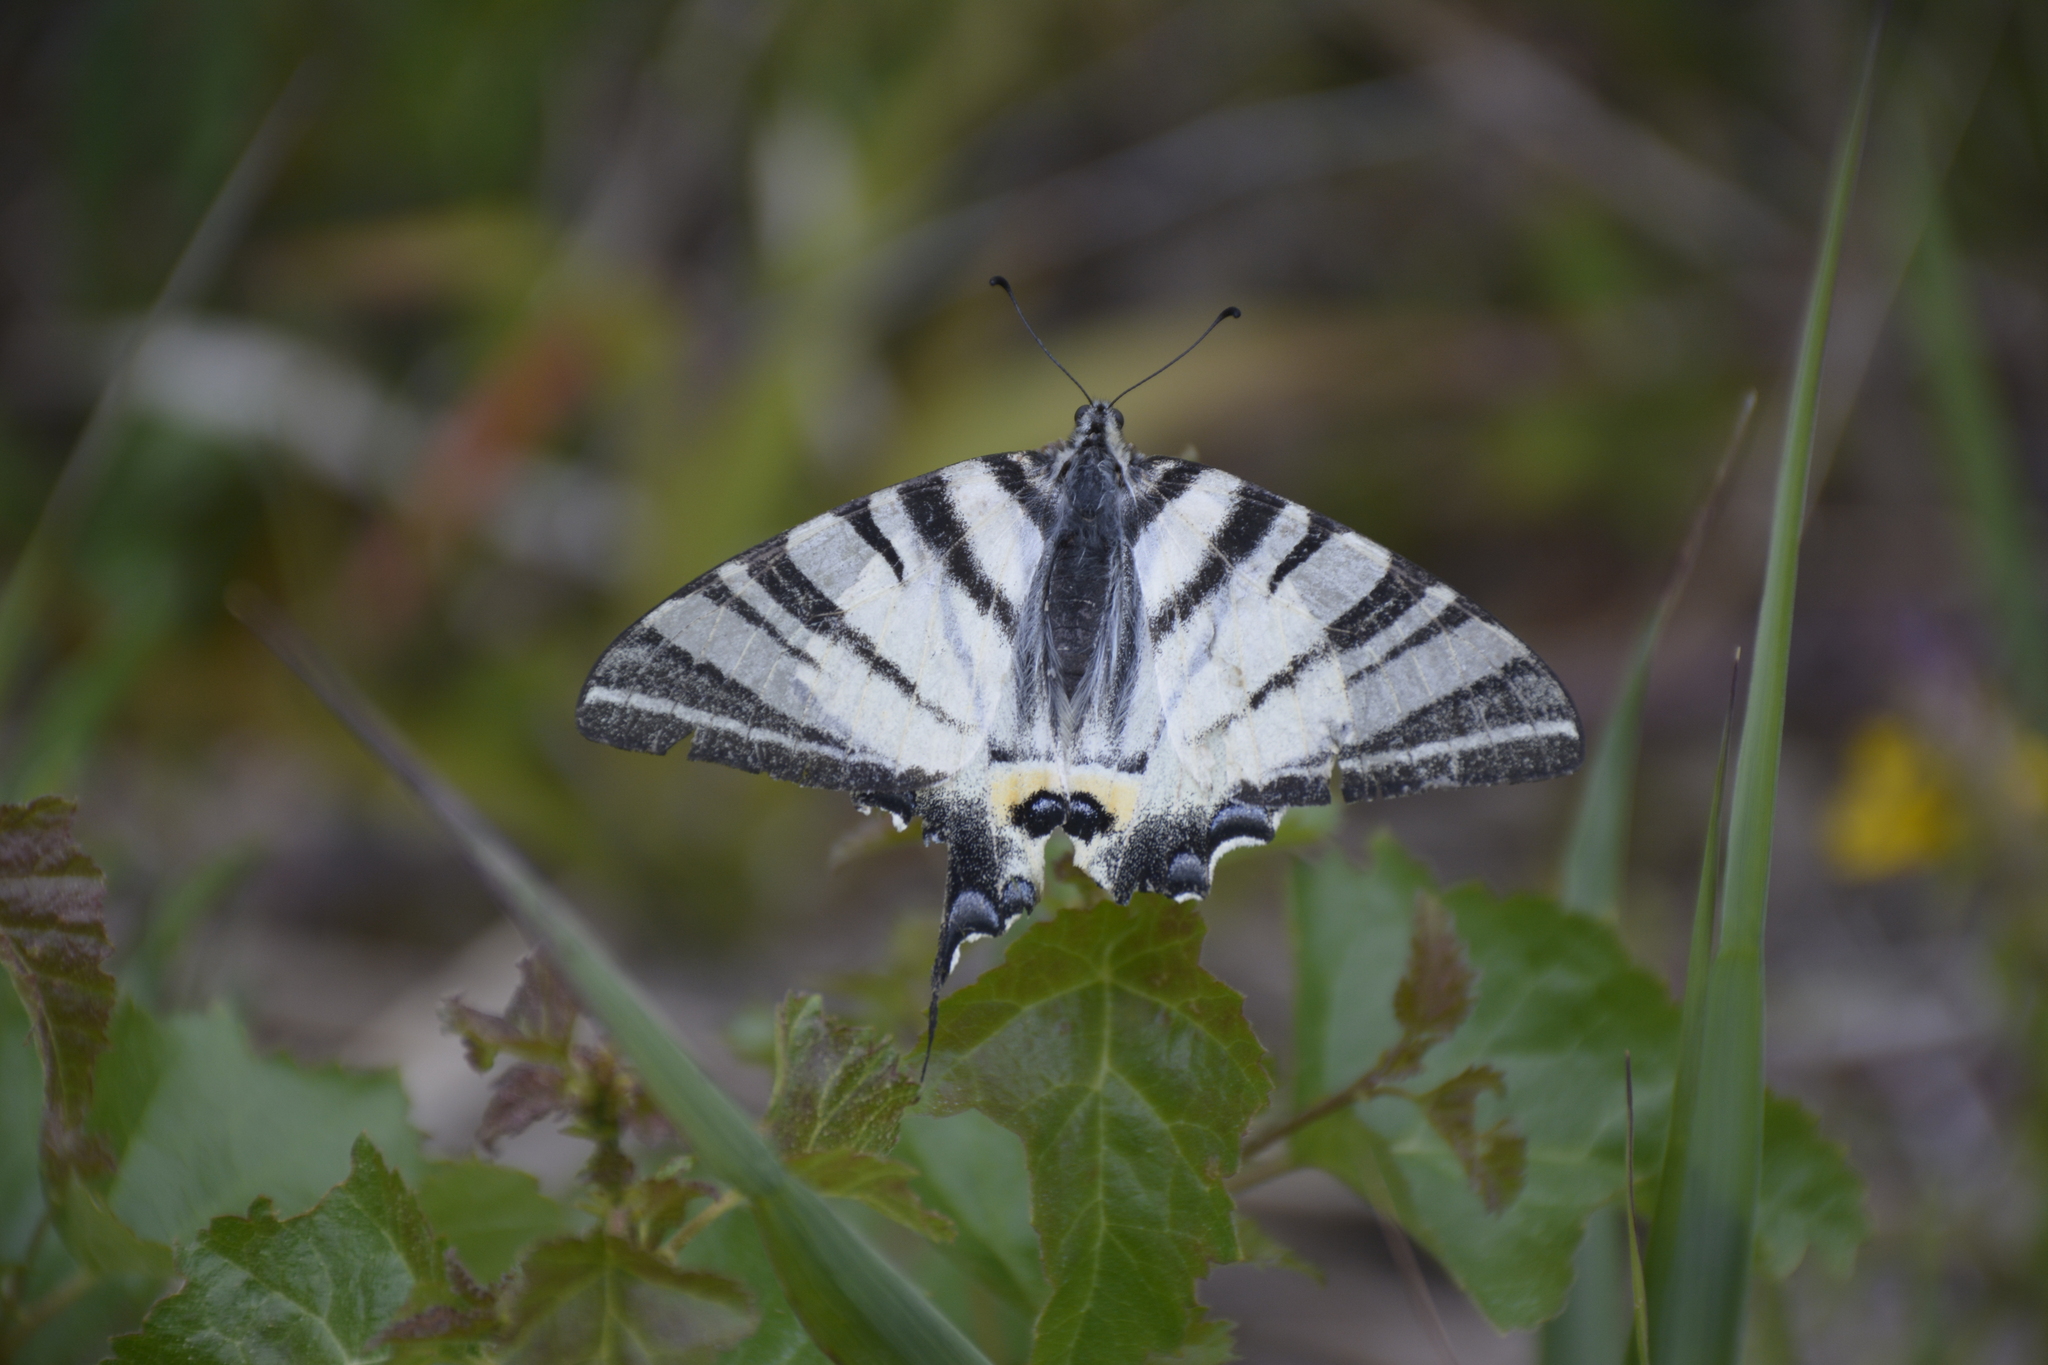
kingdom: Animalia
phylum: Arthropoda
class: Insecta
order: Lepidoptera
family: Papilionidae
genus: Iphiclides
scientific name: Iphiclides podalirius
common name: Scarce swallowtail
